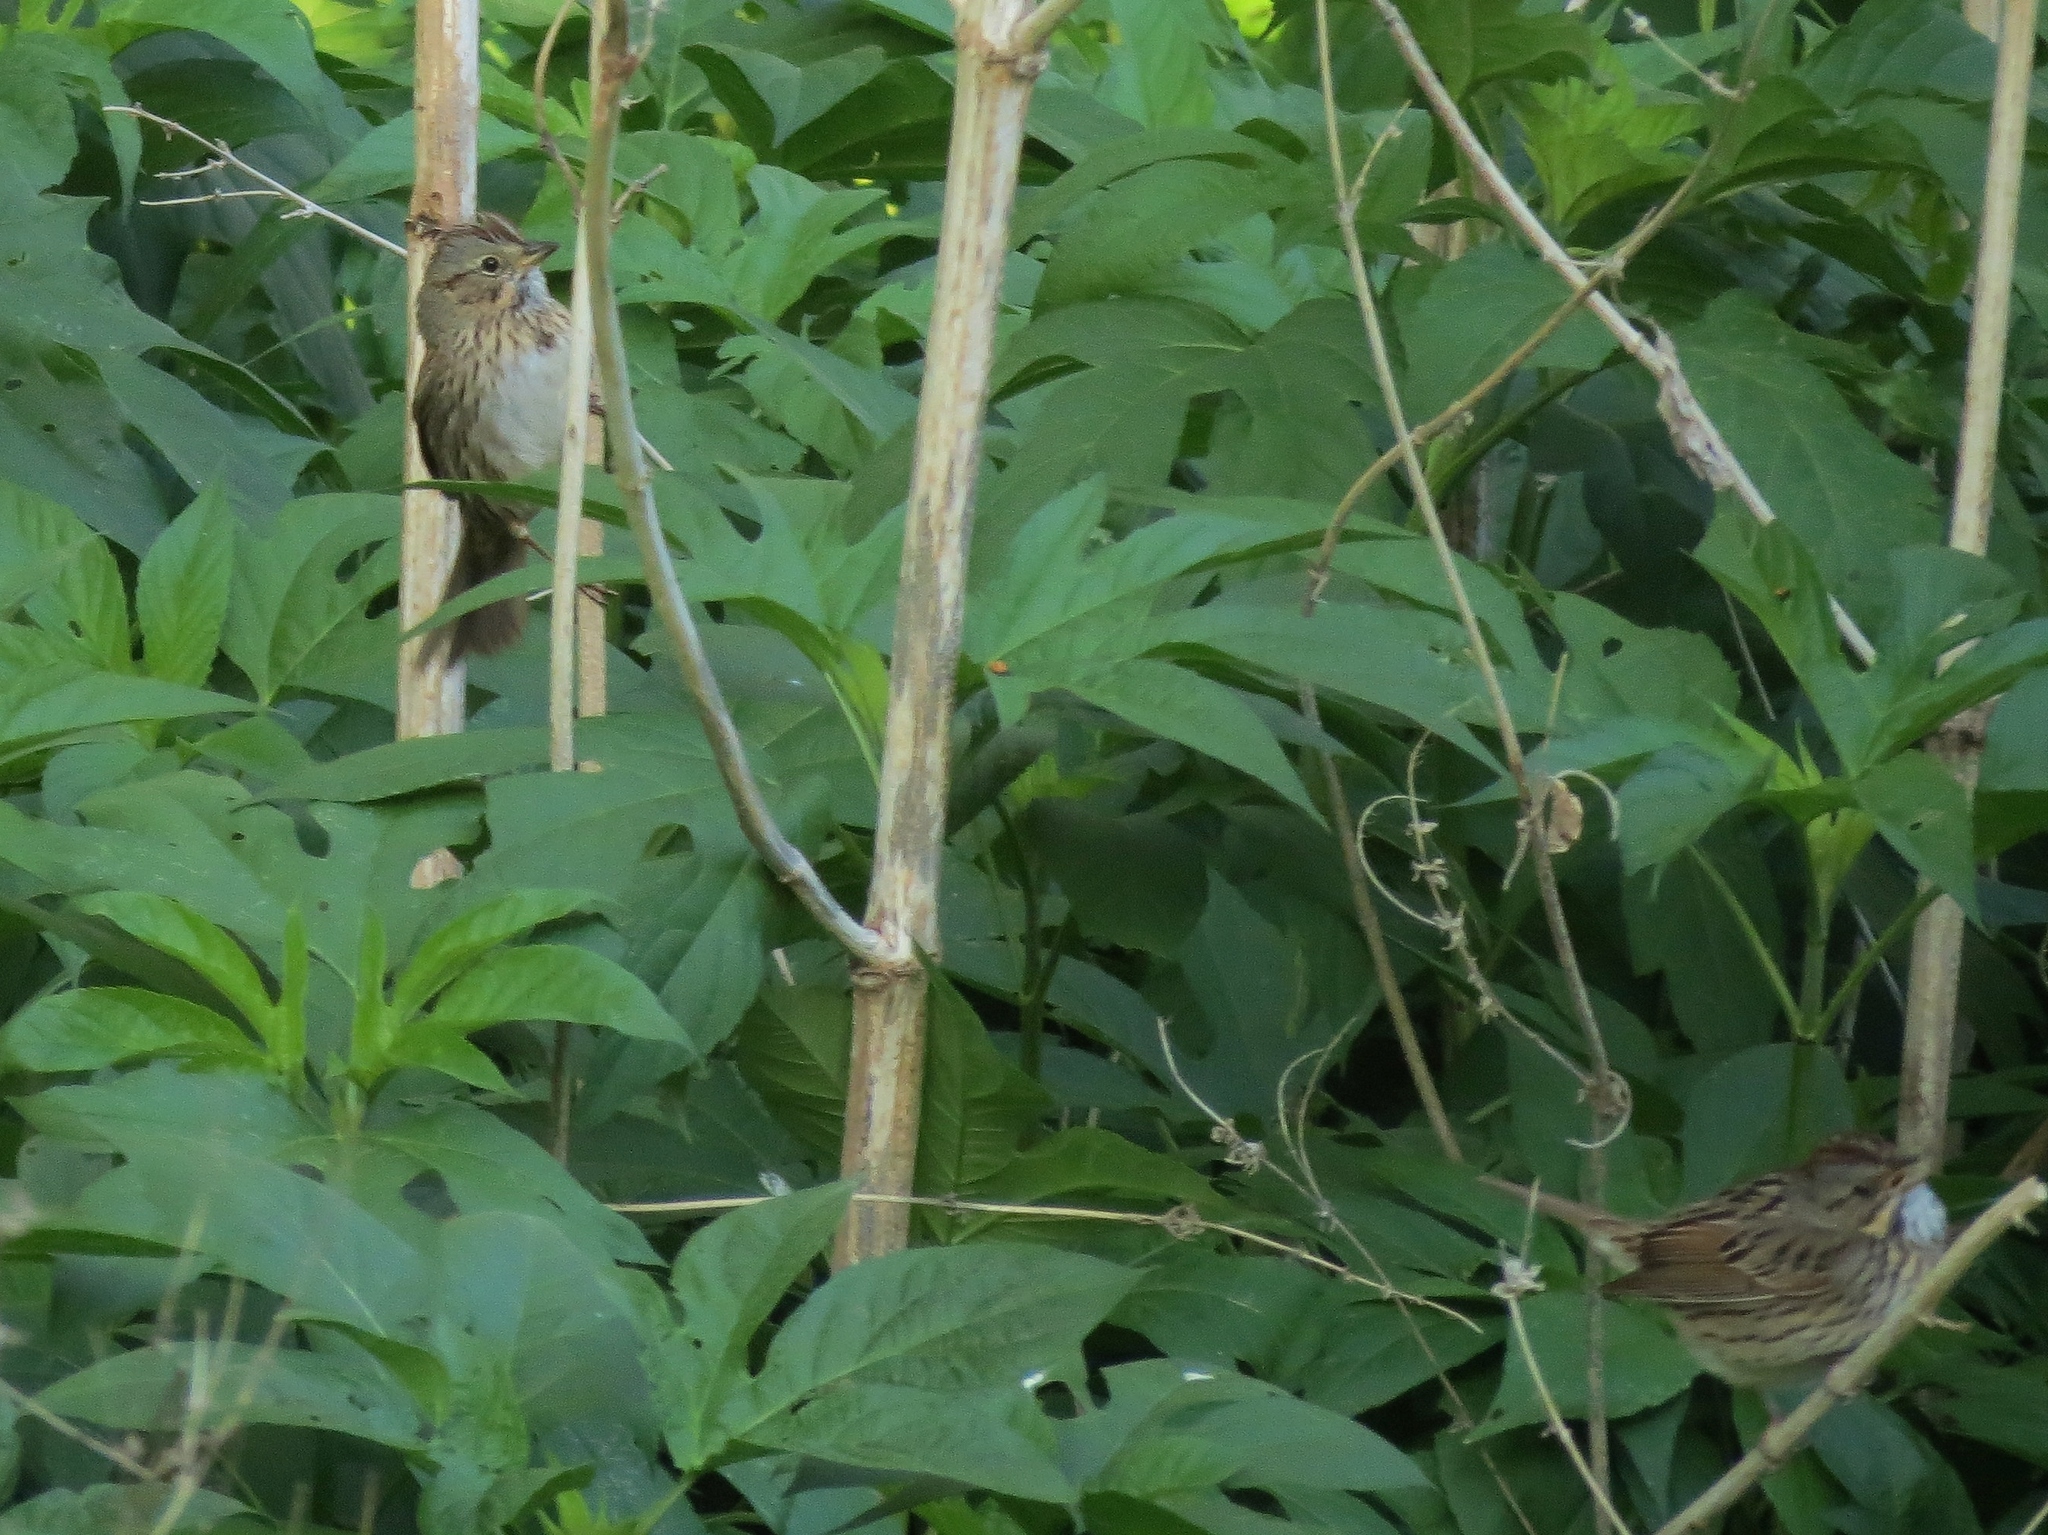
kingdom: Animalia
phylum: Chordata
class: Aves
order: Passeriformes
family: Passerellidae
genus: Melospiza
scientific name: Melospiza lincolnii
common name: Lincoln's sparrow
